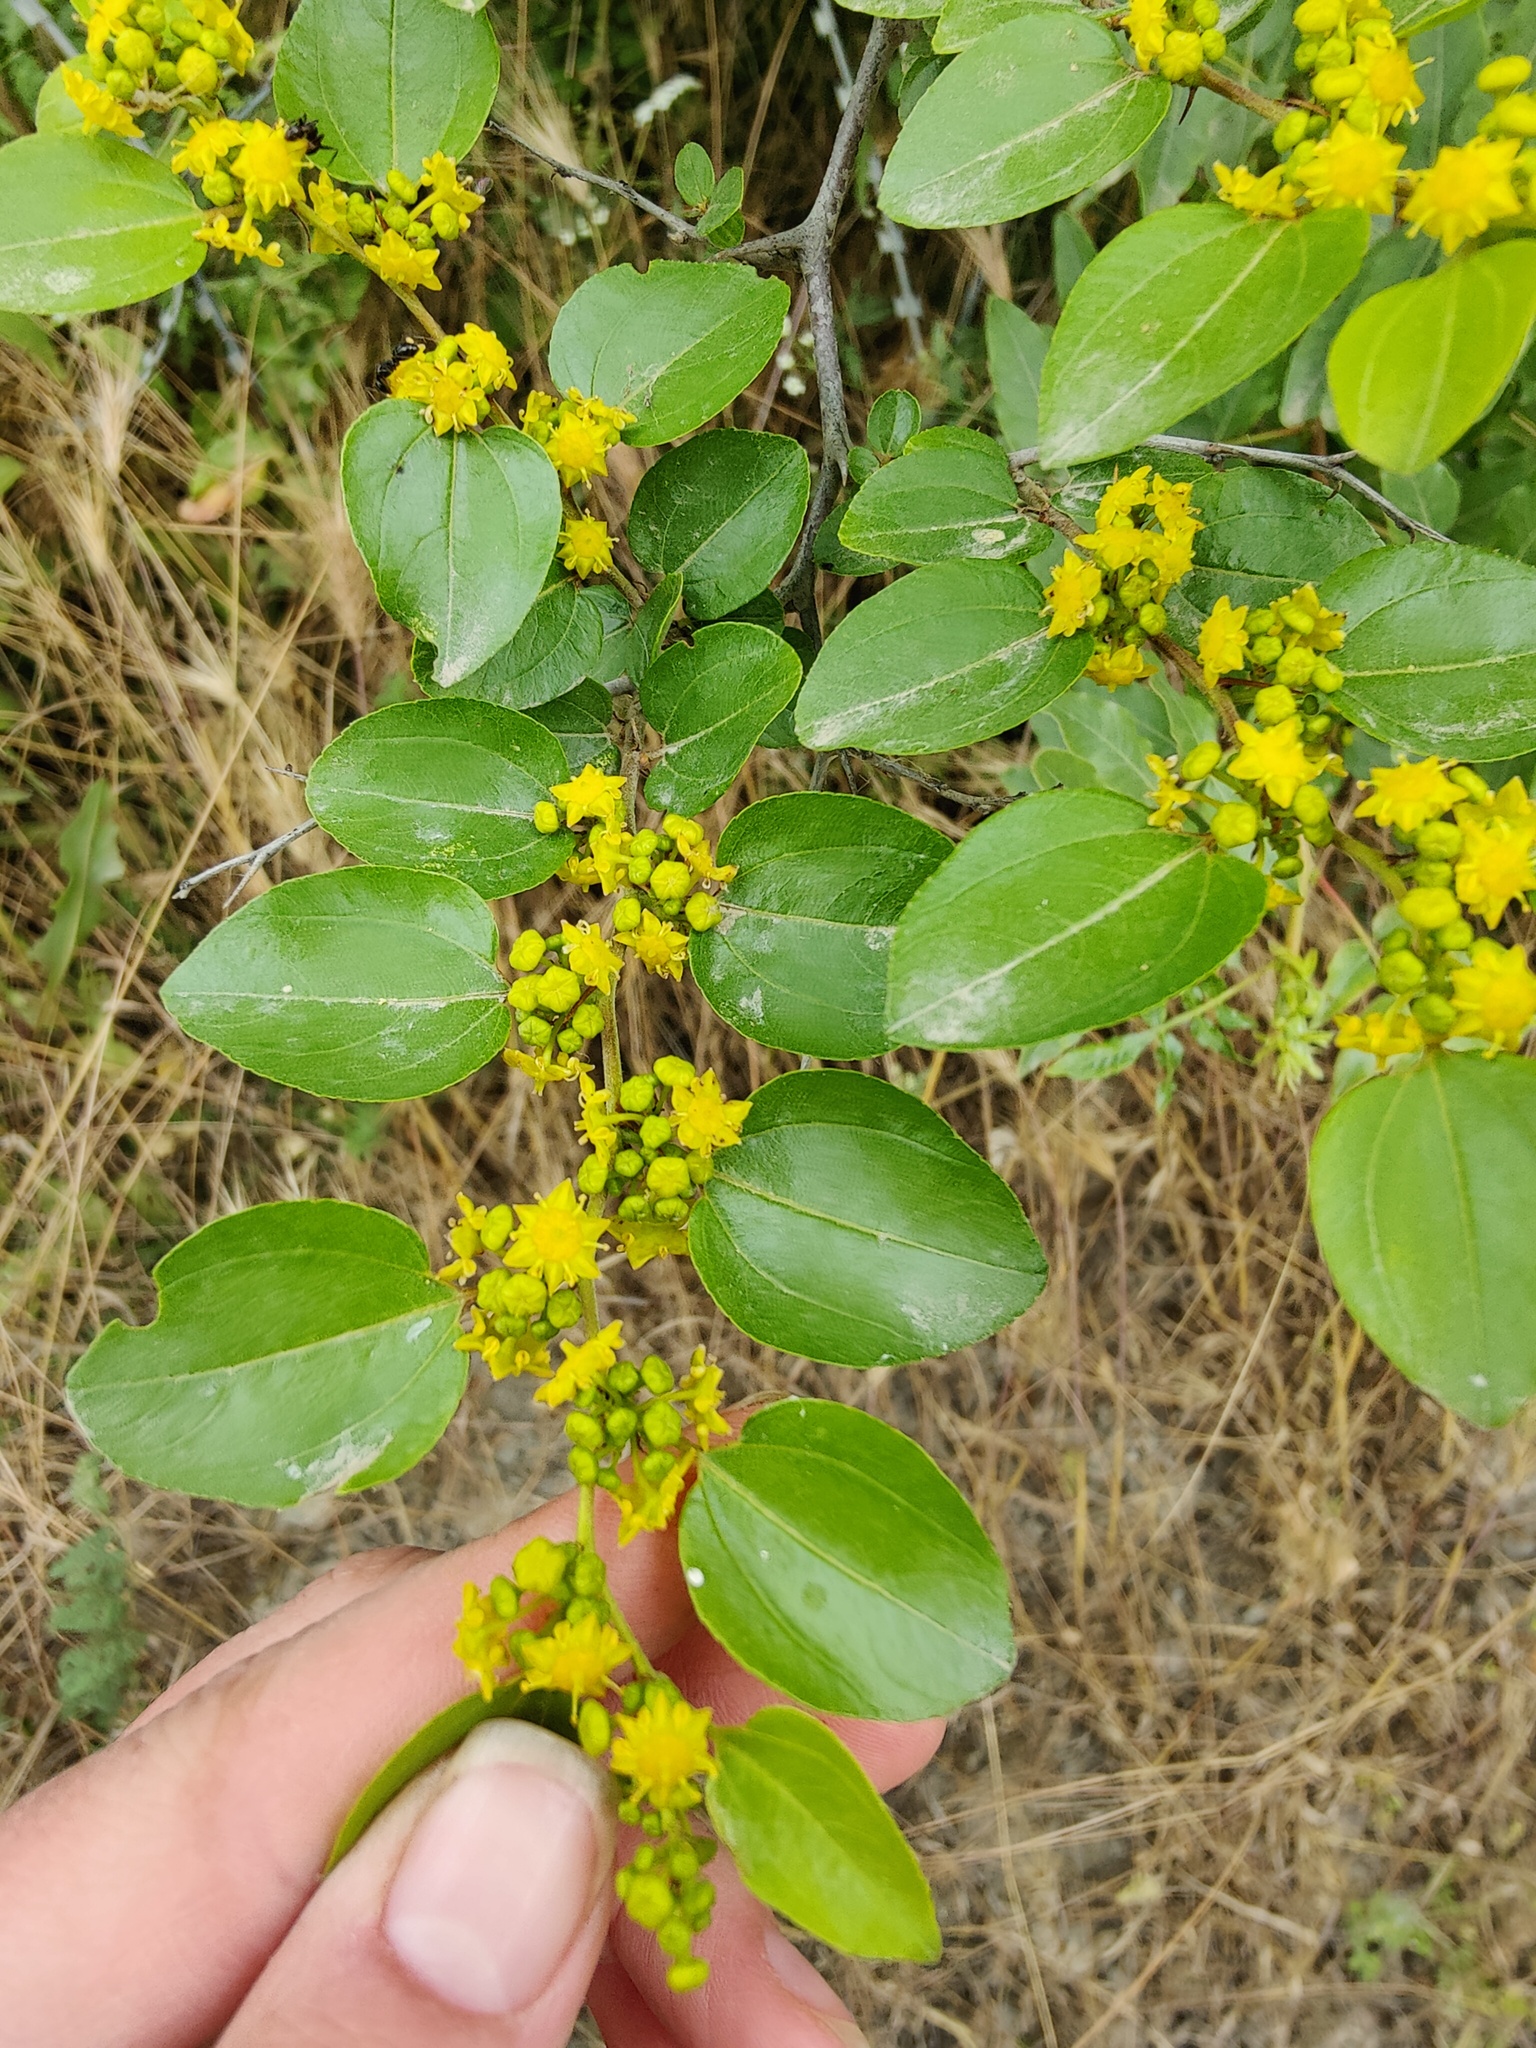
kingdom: Plantae
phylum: Tracheophyta
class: Magnoliopsida
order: Rosales
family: Rhamnaceae
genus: Paliurus
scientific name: Paliurus spina-christi
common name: Jeruselem thorn
